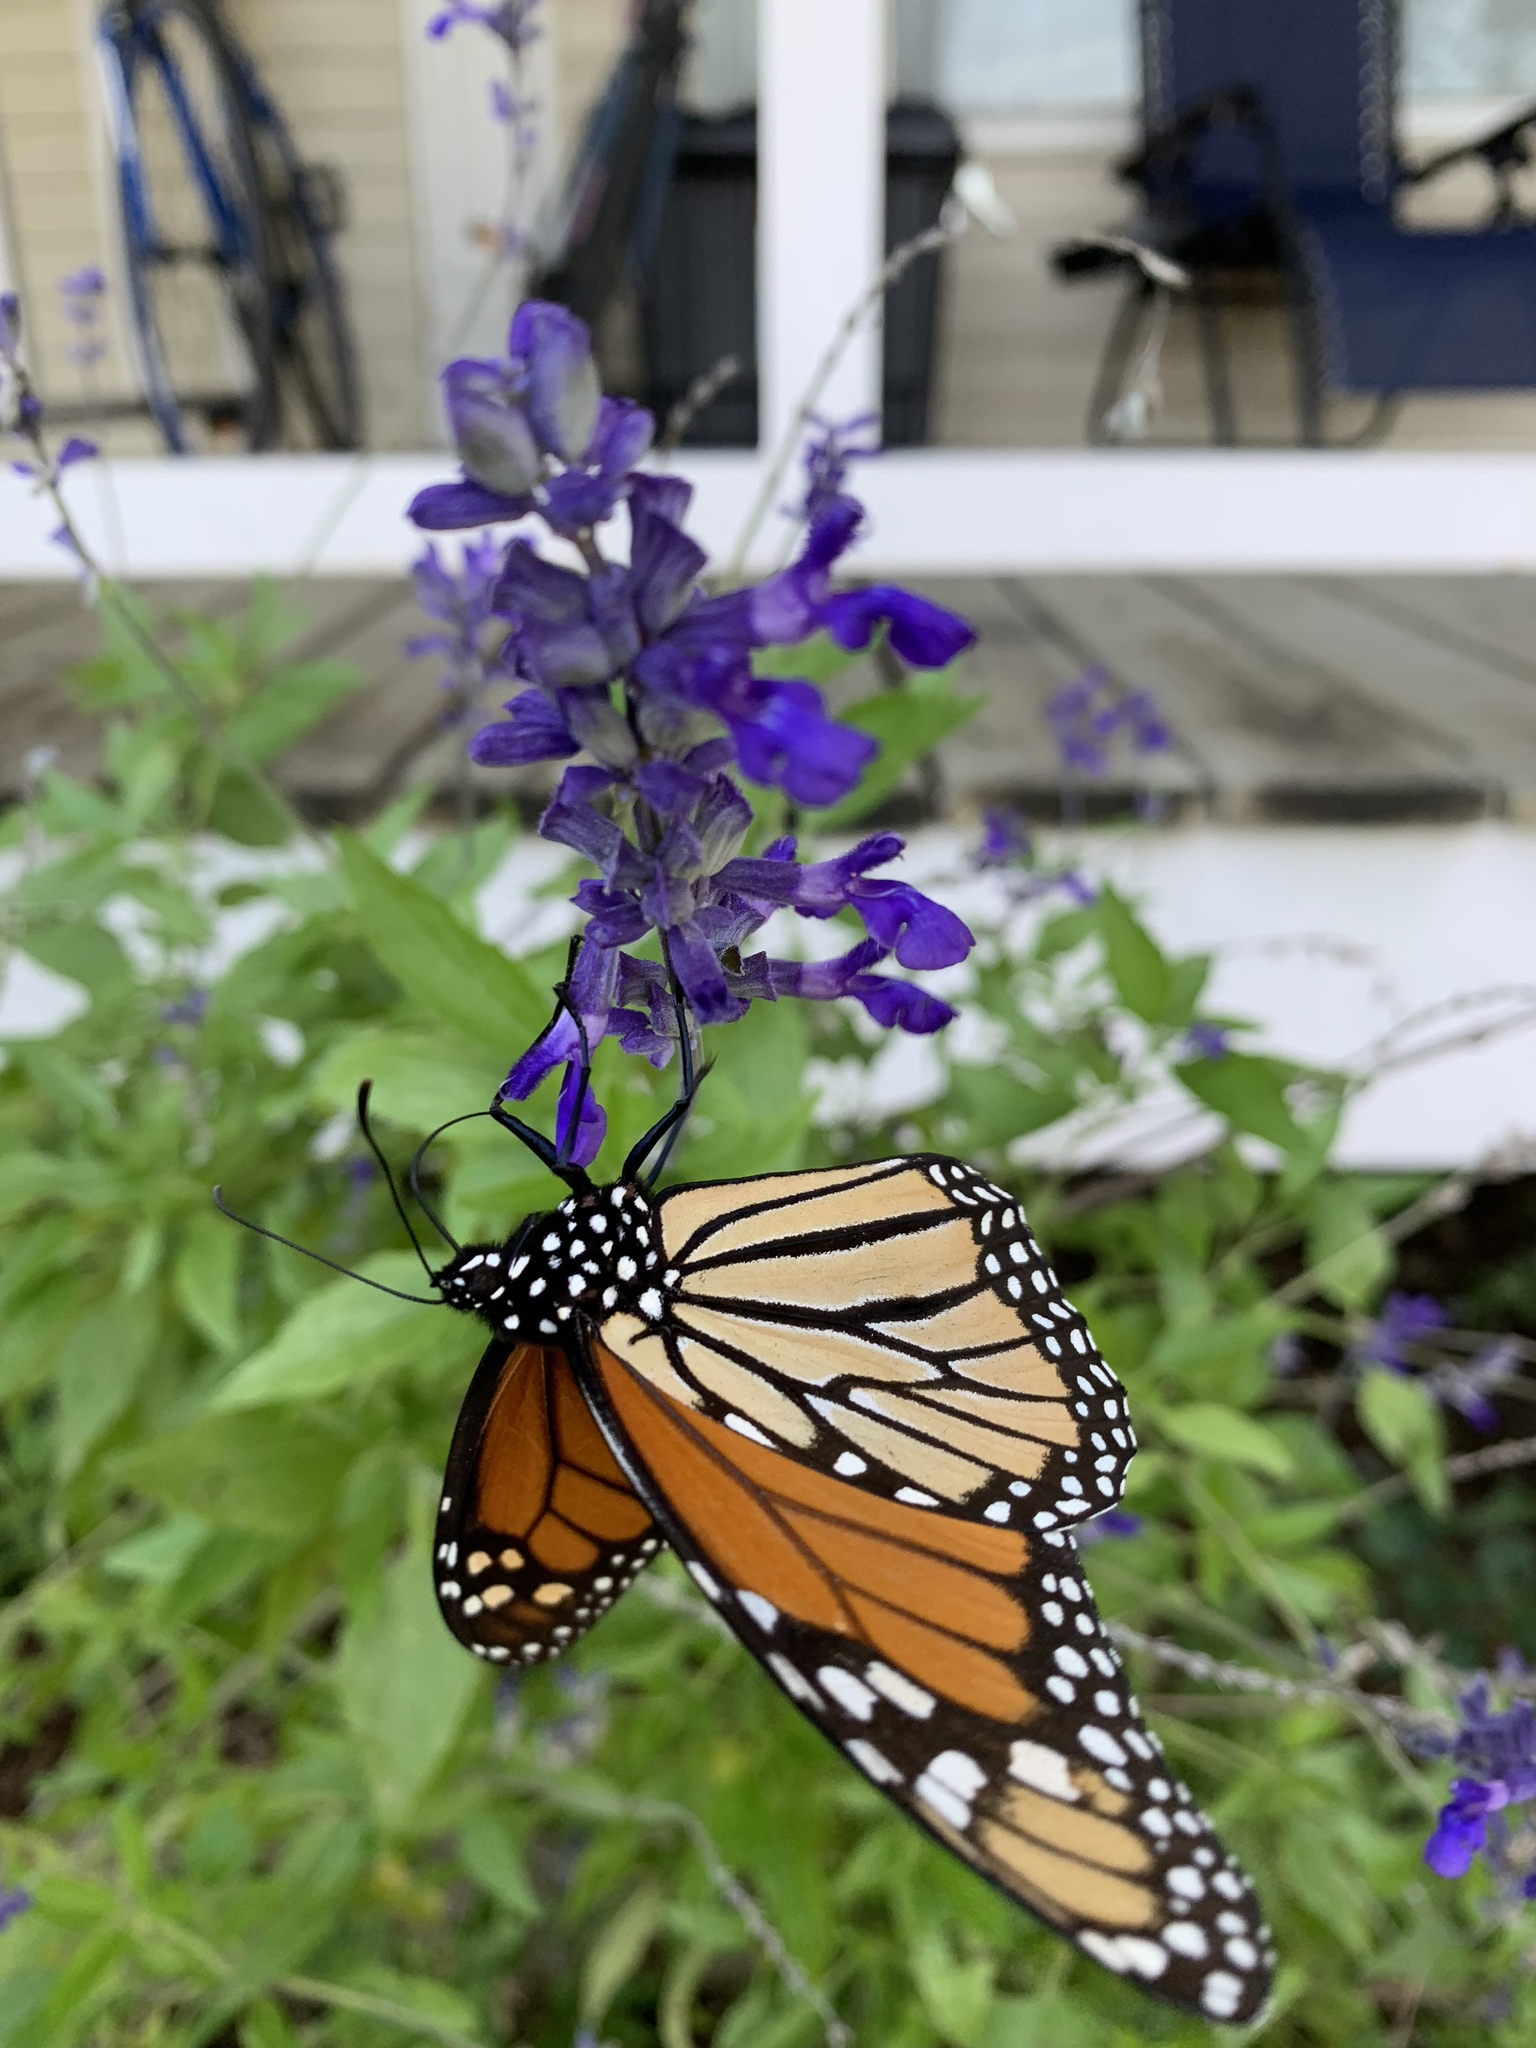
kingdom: Animalia
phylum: Arthropoda
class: Insecta
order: Lepidoptera
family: Nymphalidae
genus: Danaus
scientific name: Danaus plexippus
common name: Monarch
